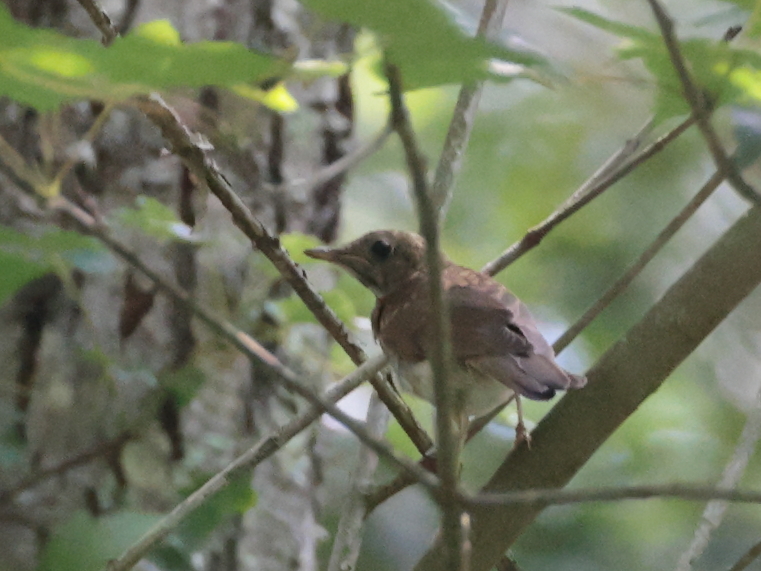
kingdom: Animalia
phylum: Chordata
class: Aves
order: Passeriformes
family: Turdidae
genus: Catharus
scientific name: Catharus fuscescens
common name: Veery
